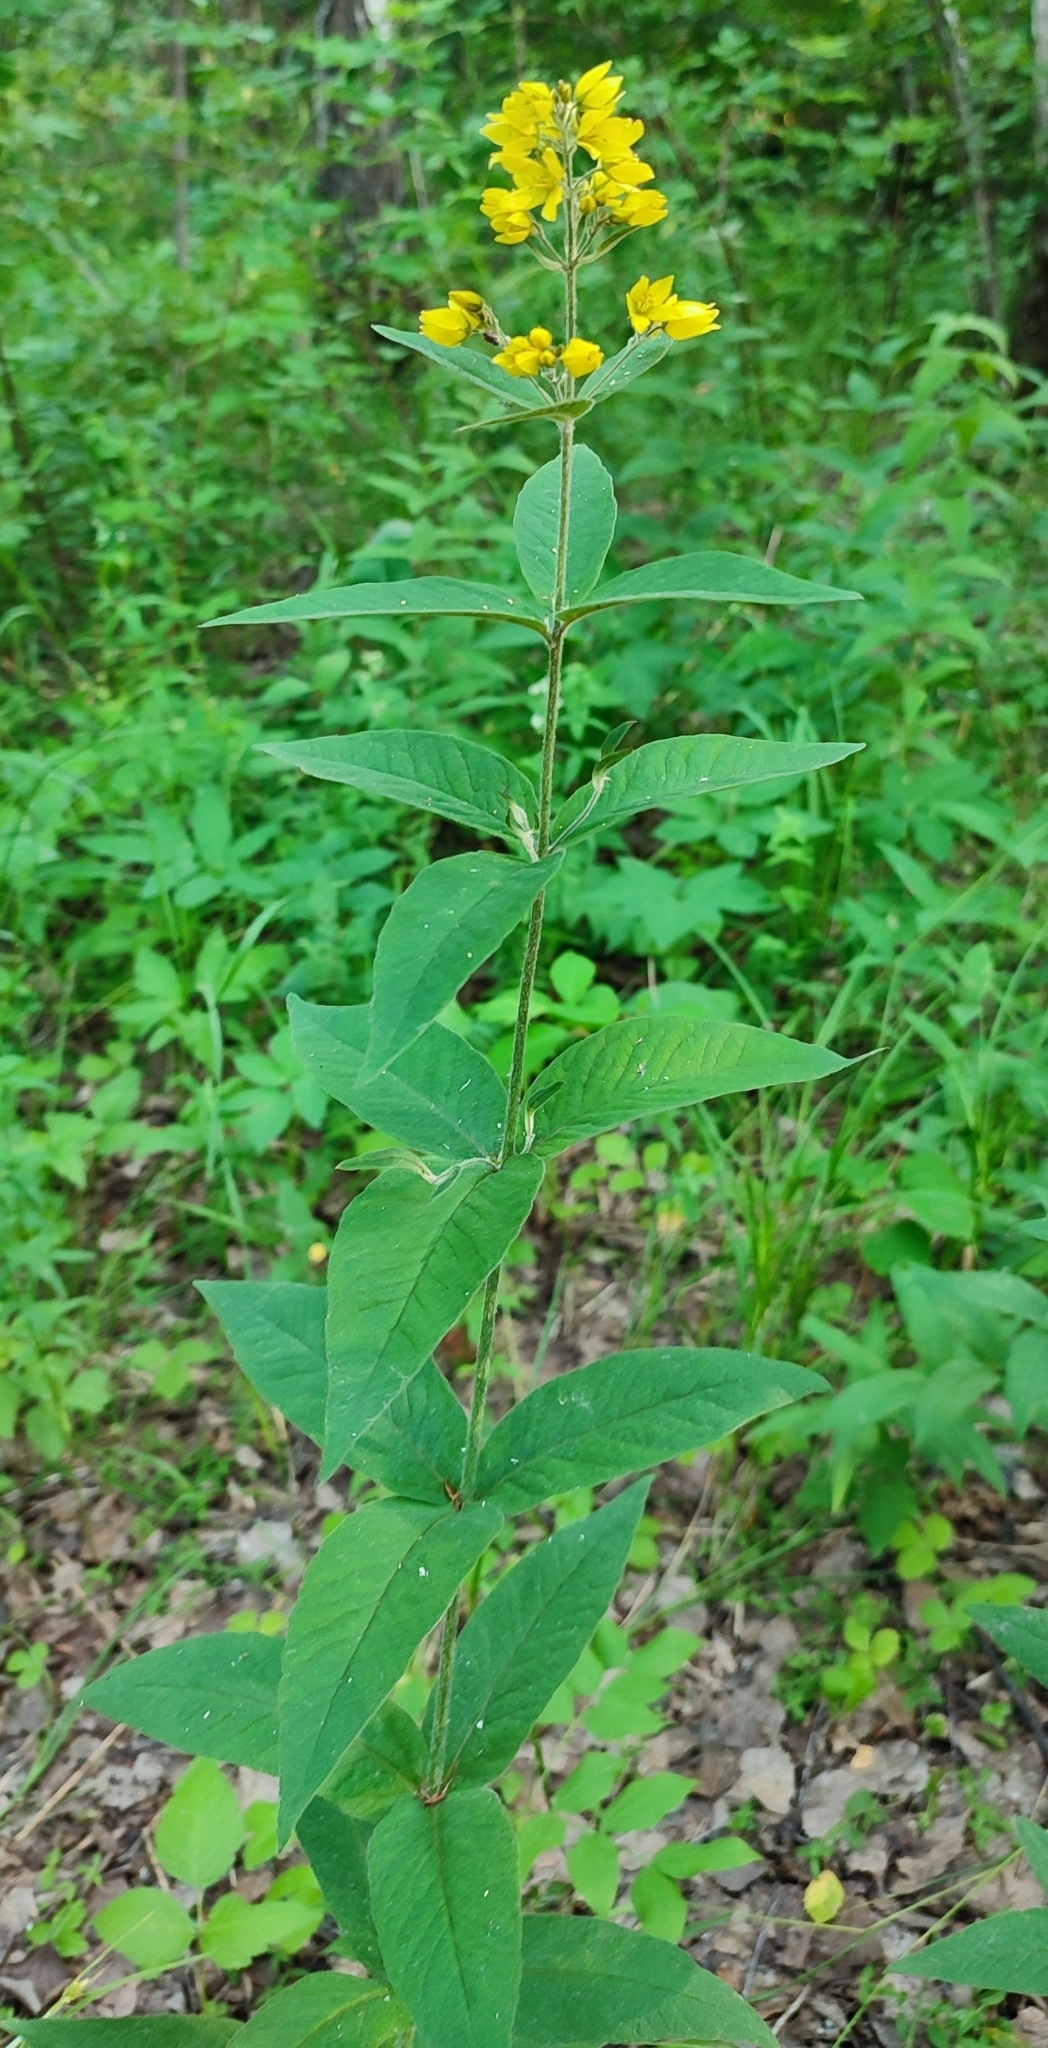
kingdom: Plantae
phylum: Tracheophyta
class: Magnoliopsida
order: Ericales
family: Primulaceae
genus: Lysimachia
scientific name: Lysimachia vulgaris
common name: Yellow loosestrife
